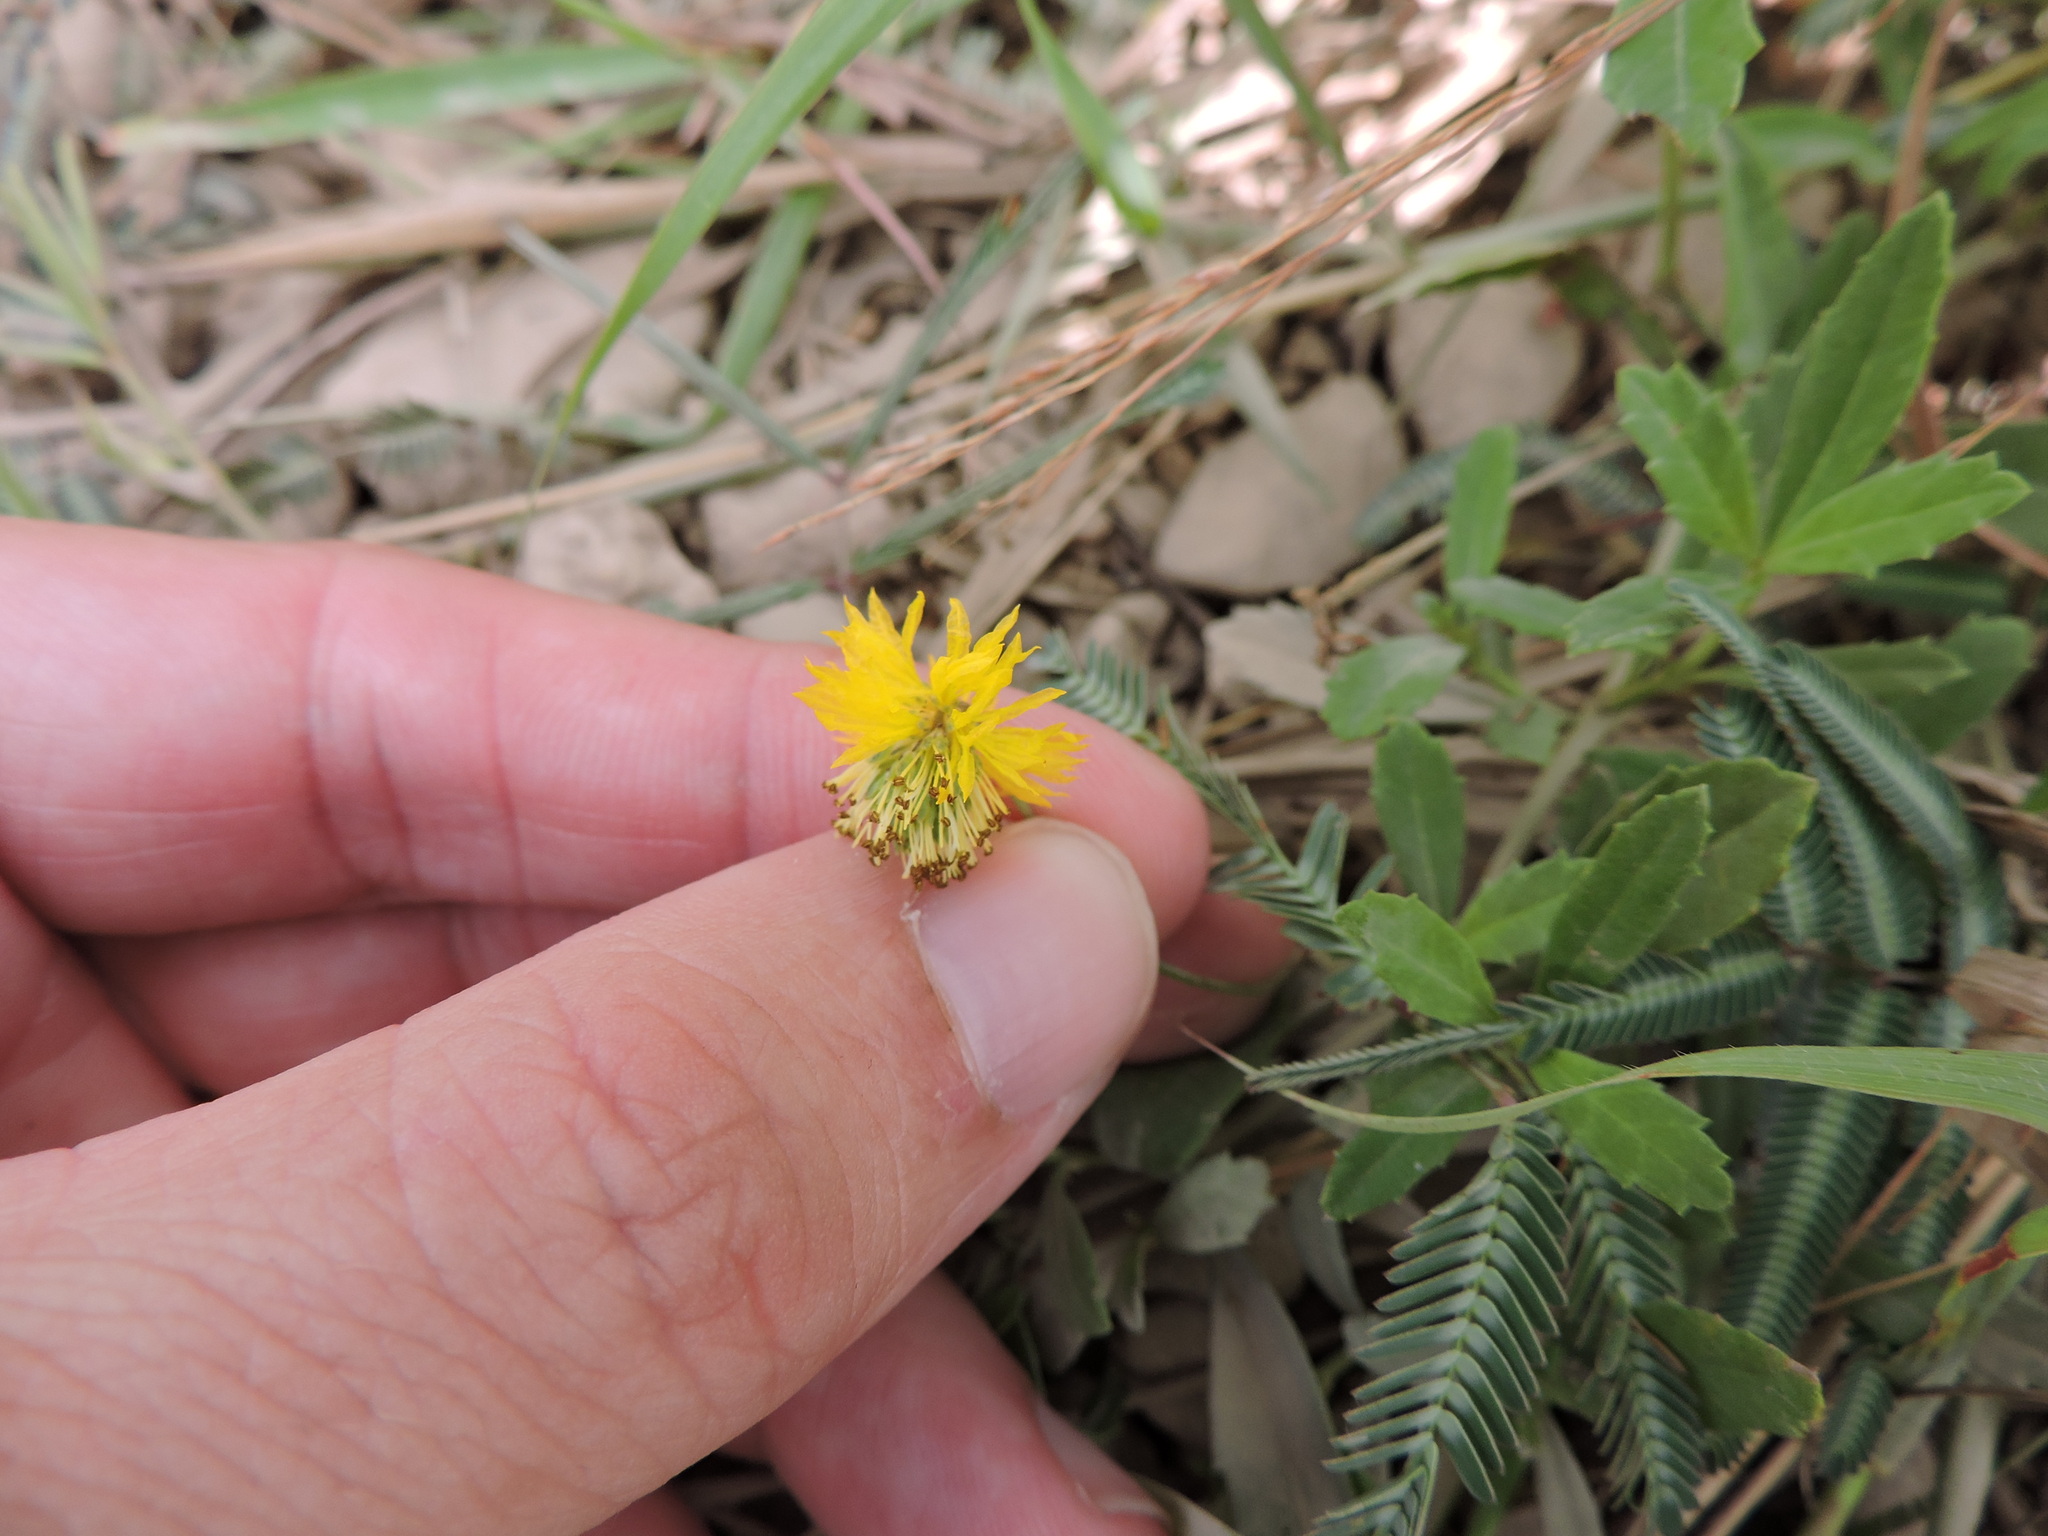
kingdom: Plantae
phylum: Tracheophyta
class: Magnoliopsida
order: Fabales
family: Fabaceae
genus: Neptunia
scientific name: Neptunia pubescens
